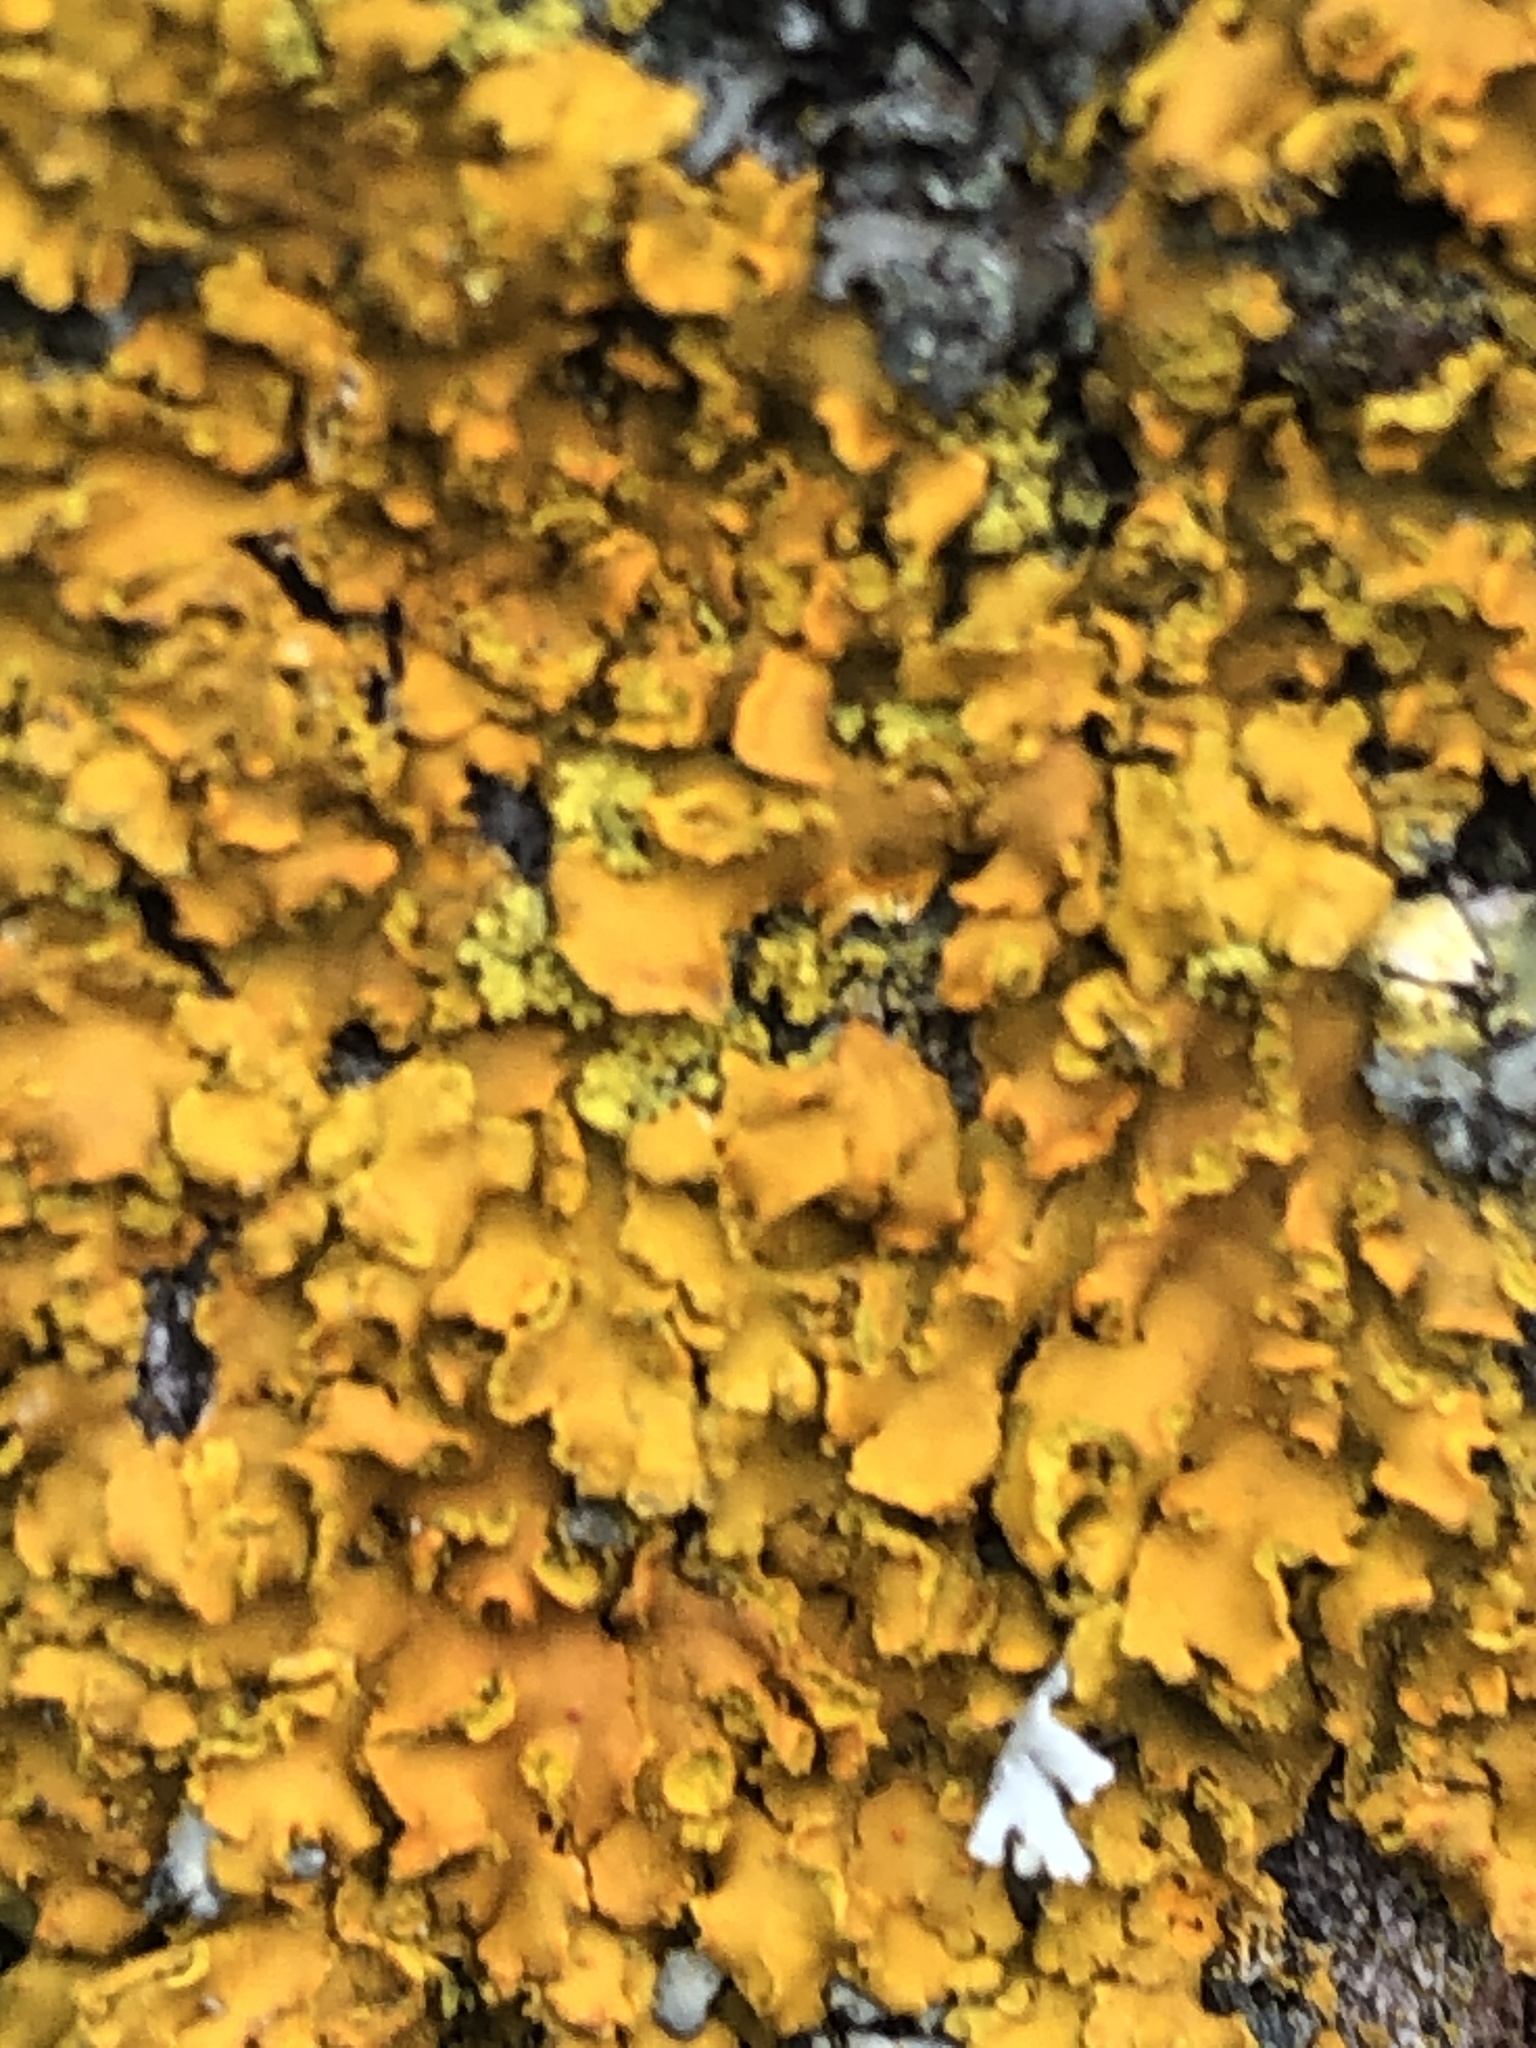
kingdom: Fungi
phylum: Ascomycota
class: Lecanoromycetes
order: Teloschistales
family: Teloschistaceae
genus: Oxneria
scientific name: Oxneria fallax
